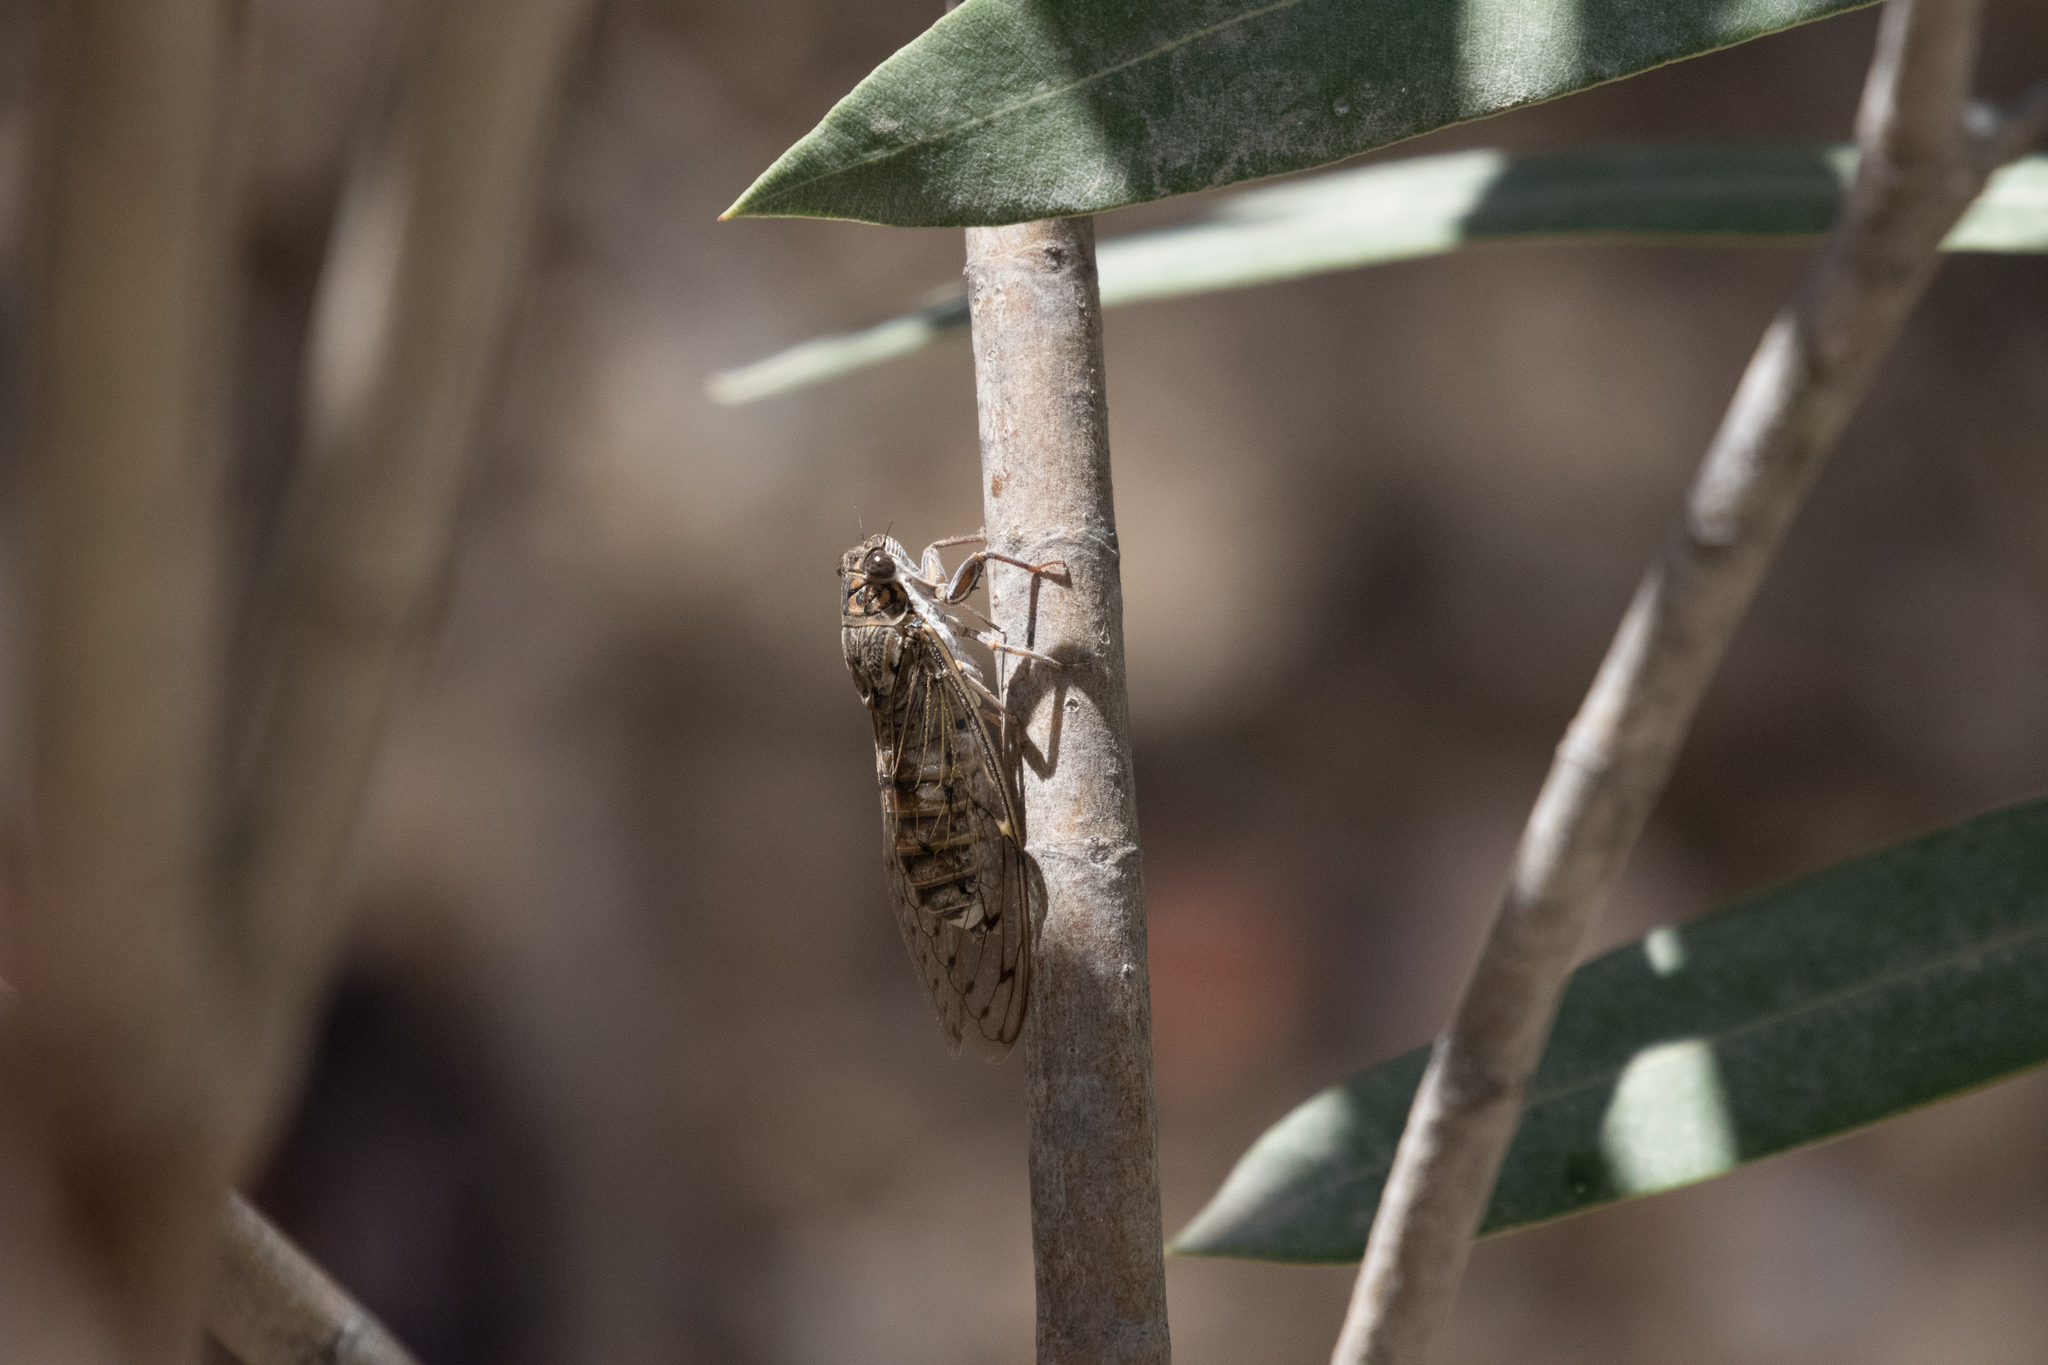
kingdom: Animalia
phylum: Arthropoda
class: Insecta
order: Hemiptera
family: Cicadidae
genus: Cicada
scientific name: Cicada barbara
